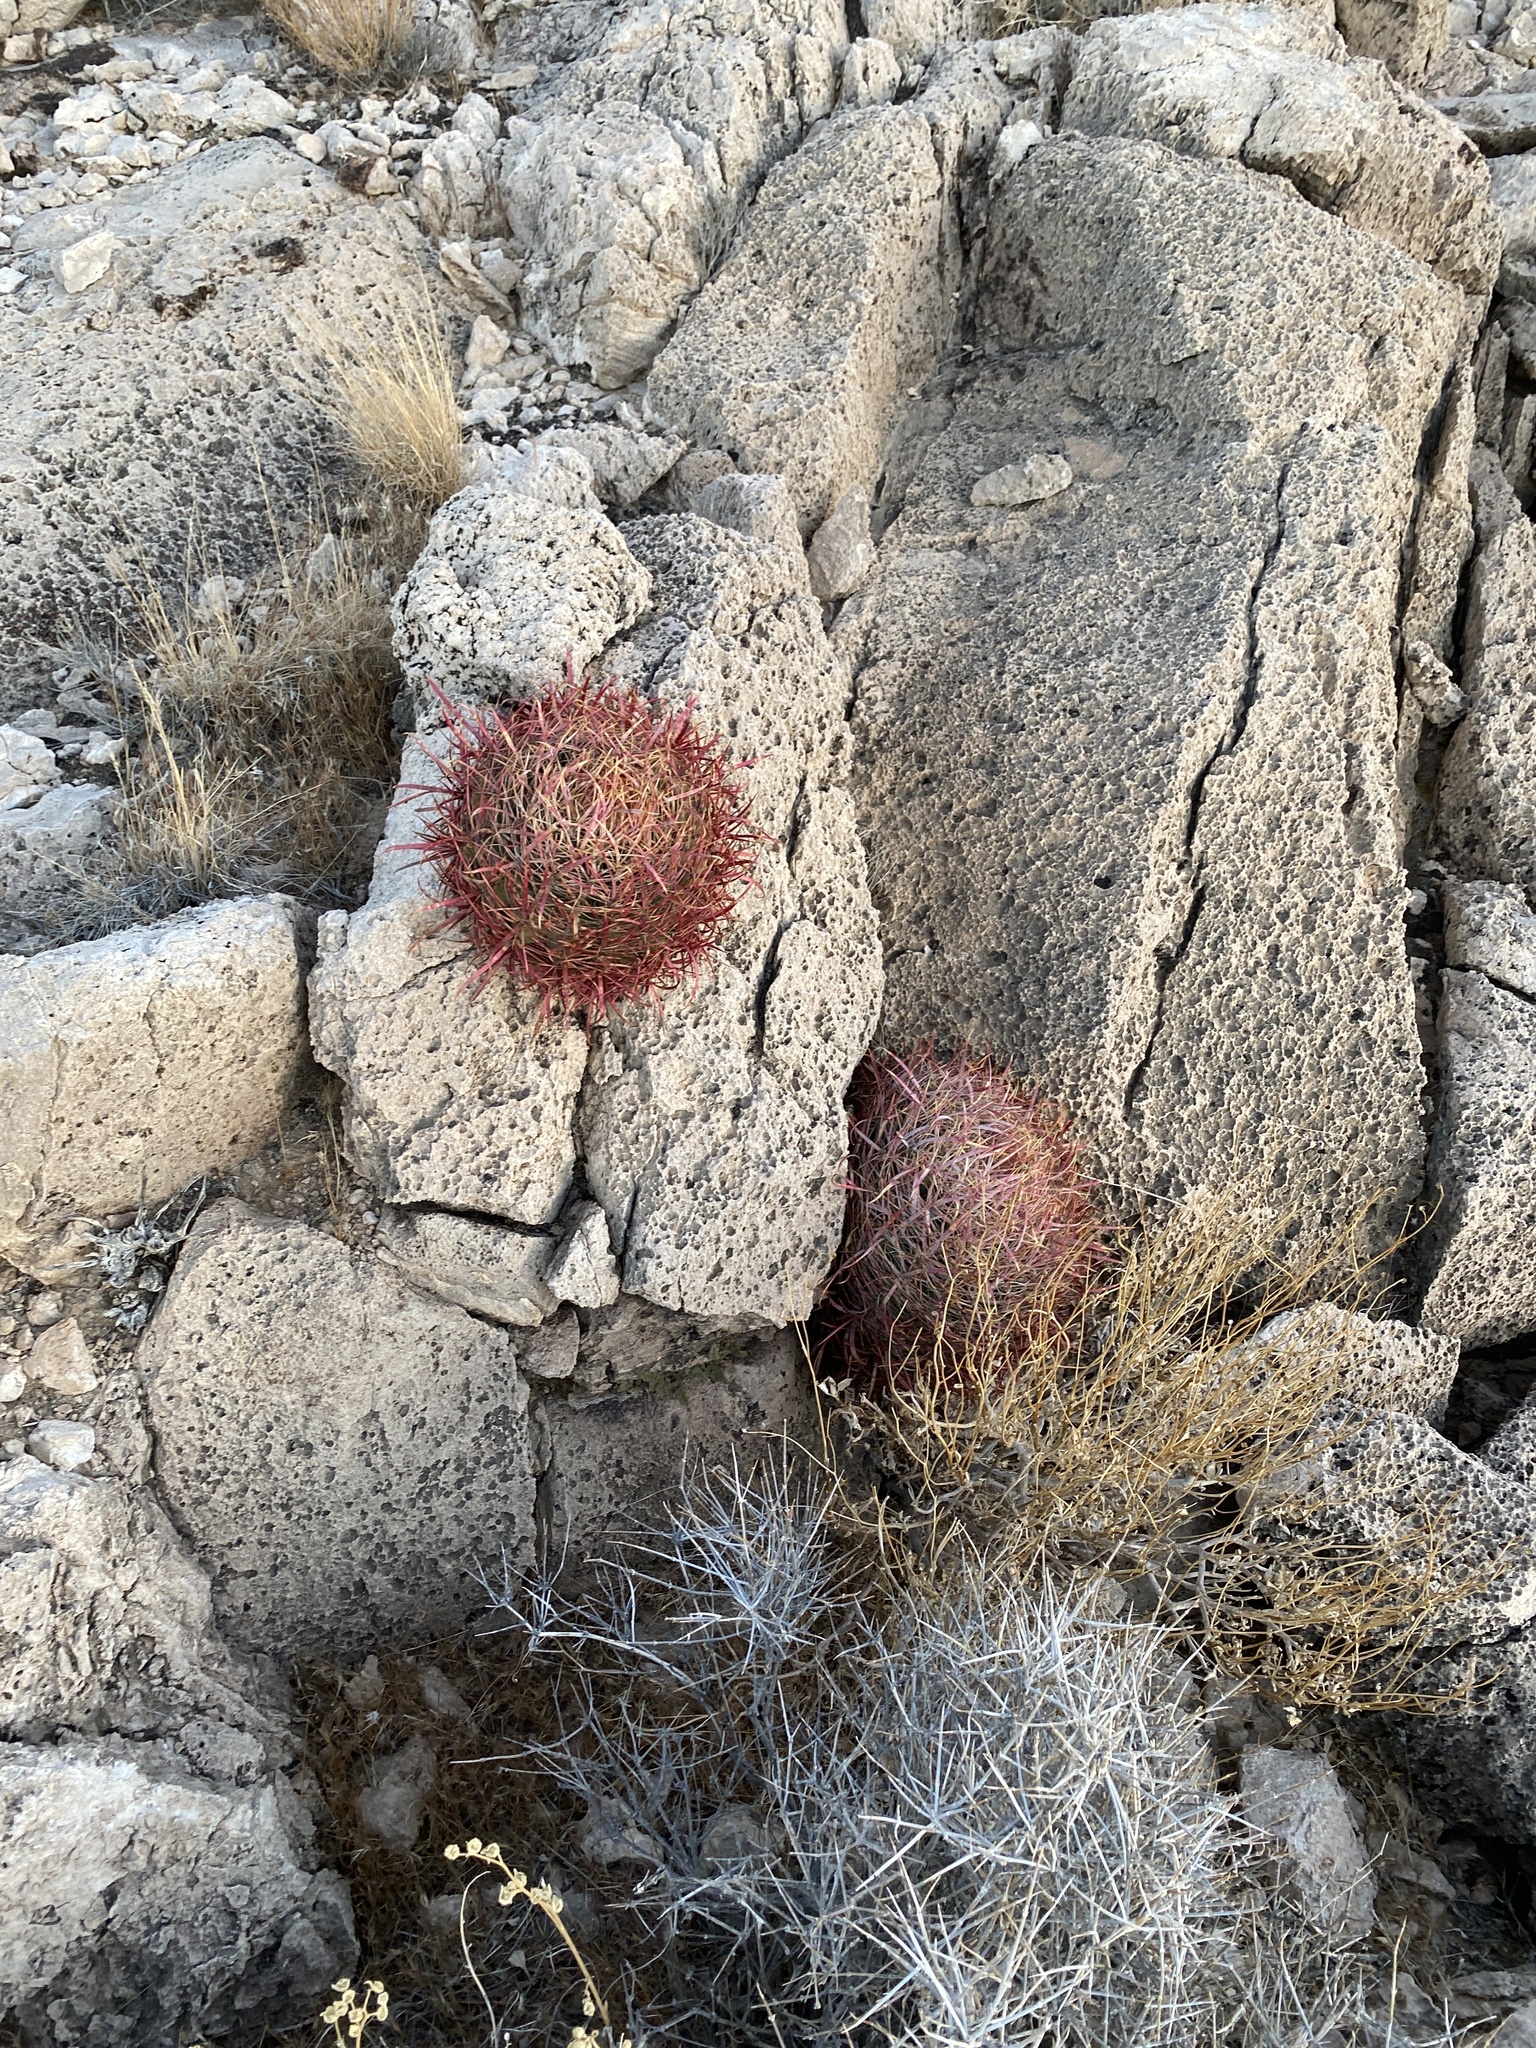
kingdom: Plantae
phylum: Tracheophyta
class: Magnoliopsida
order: Caryophyllales
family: Cactaceae
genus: Ferocactus
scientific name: Ferocactus cylindraceus
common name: California barrel cactus
